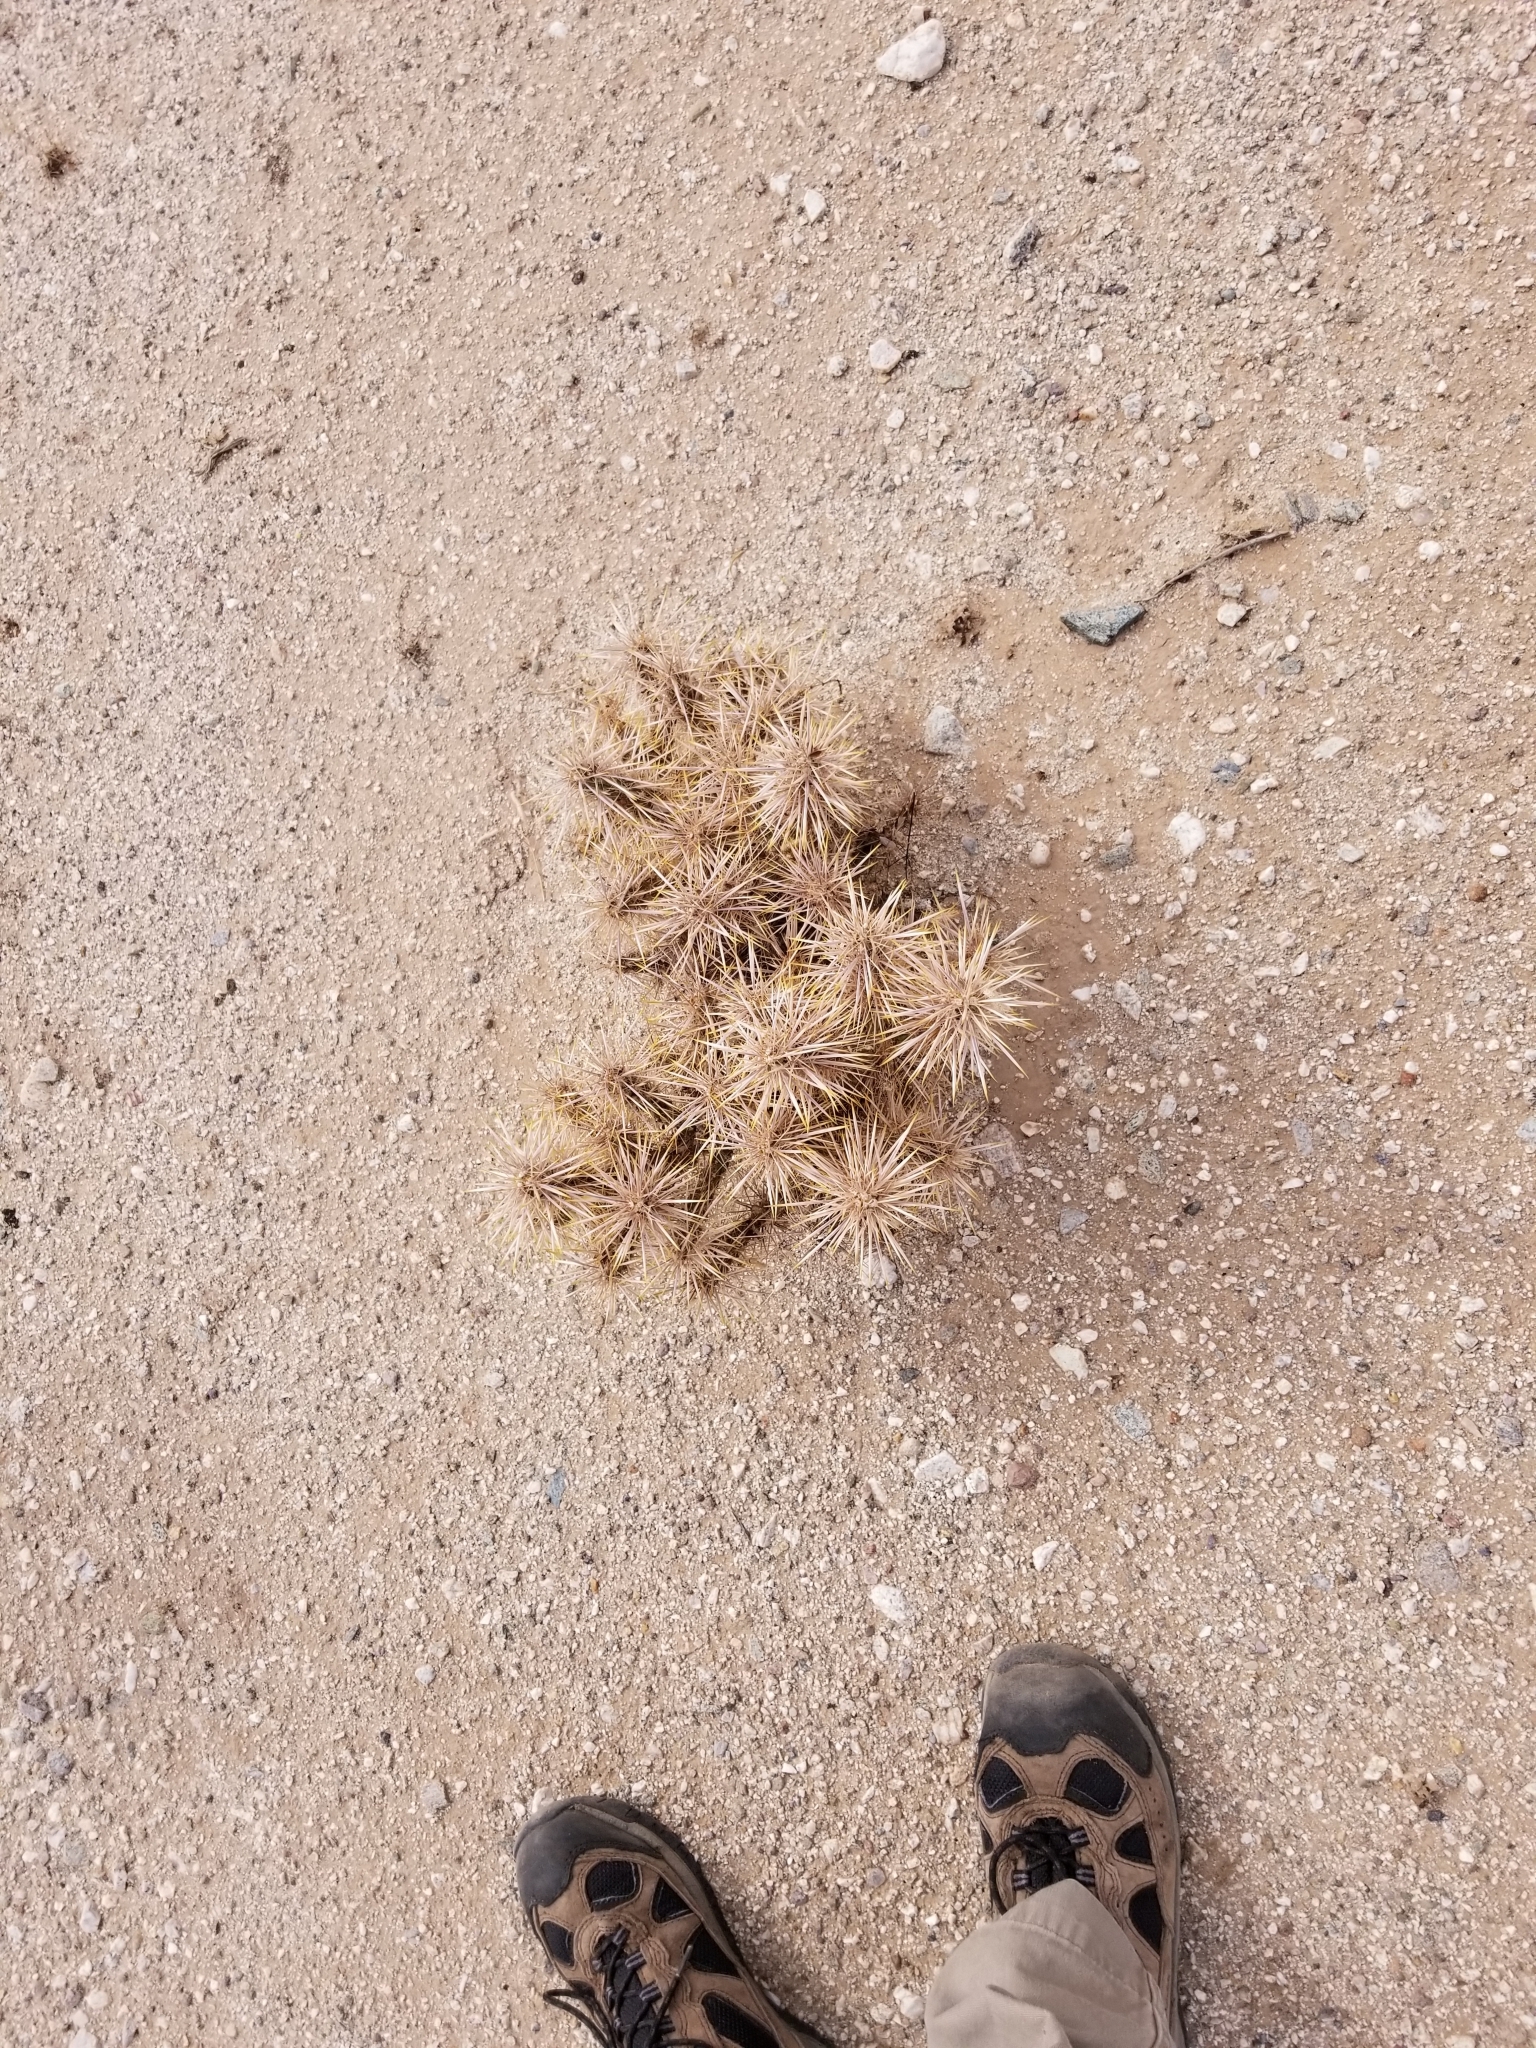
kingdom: Plantae
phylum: Tracheophyta
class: Magnoliopsida
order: Caryophyllales
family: Cactaceae
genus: Cylindropuntia
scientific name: Cylindropuntia echinocarpa
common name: Ground cholla
